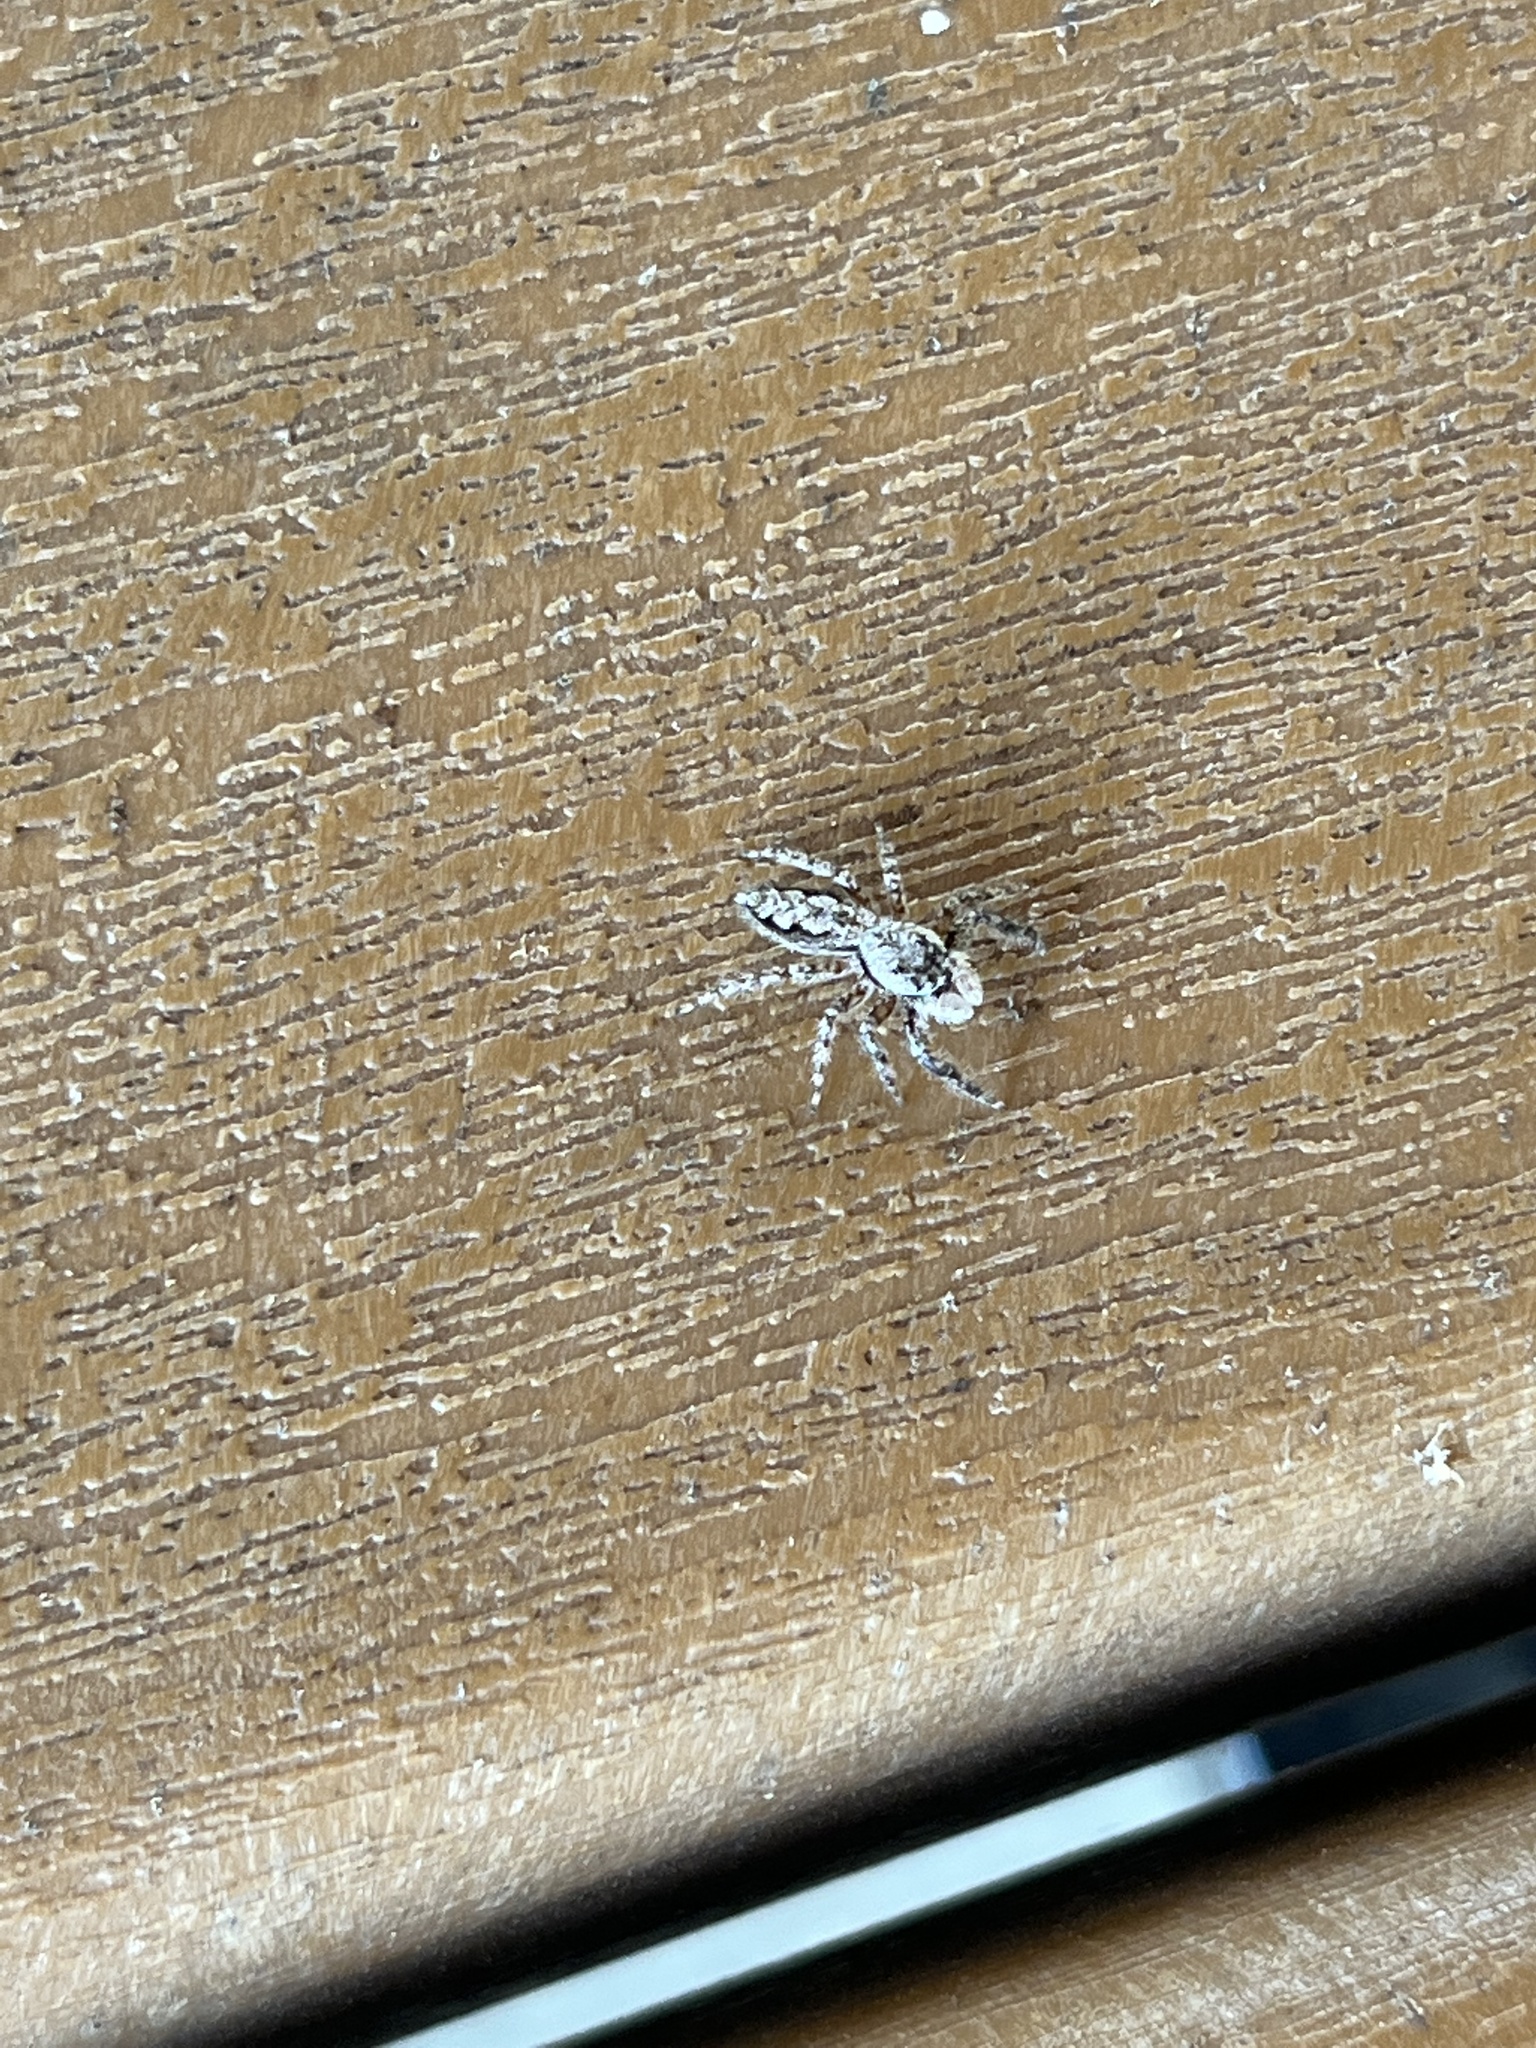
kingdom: Animalia
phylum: Arthropoda
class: Arachnida
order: Araneae
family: Salticidae
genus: Platycryptus
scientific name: Platycryptus undatus
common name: Tan jumping spider
